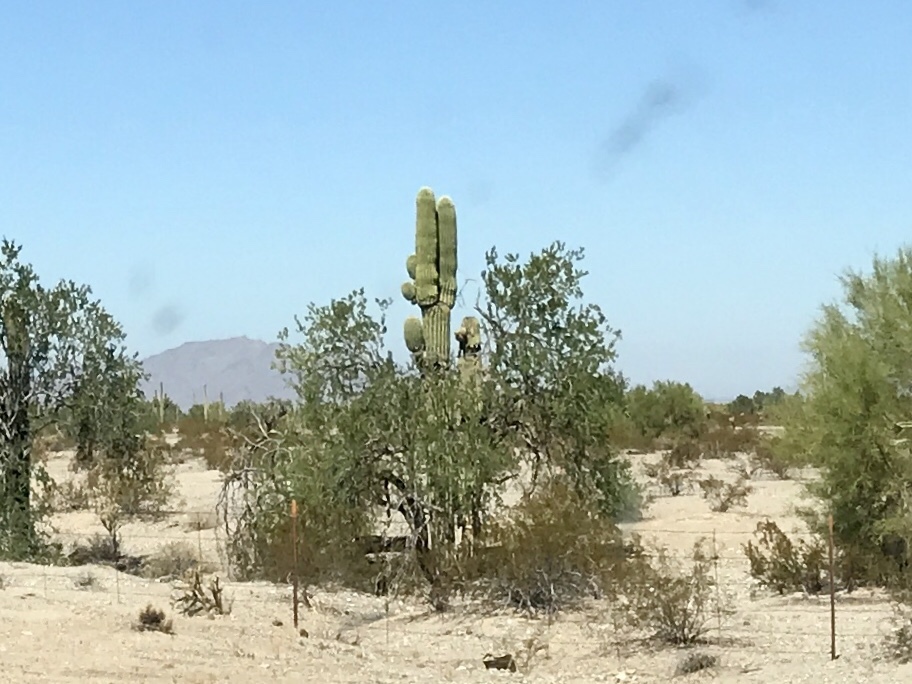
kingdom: Plantae
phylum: Tracheophyta
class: Magnoliopsida
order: Caryophyllales
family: Cactaceae
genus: Carnegiea
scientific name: Carnegiea gigantea
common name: Saguaro
